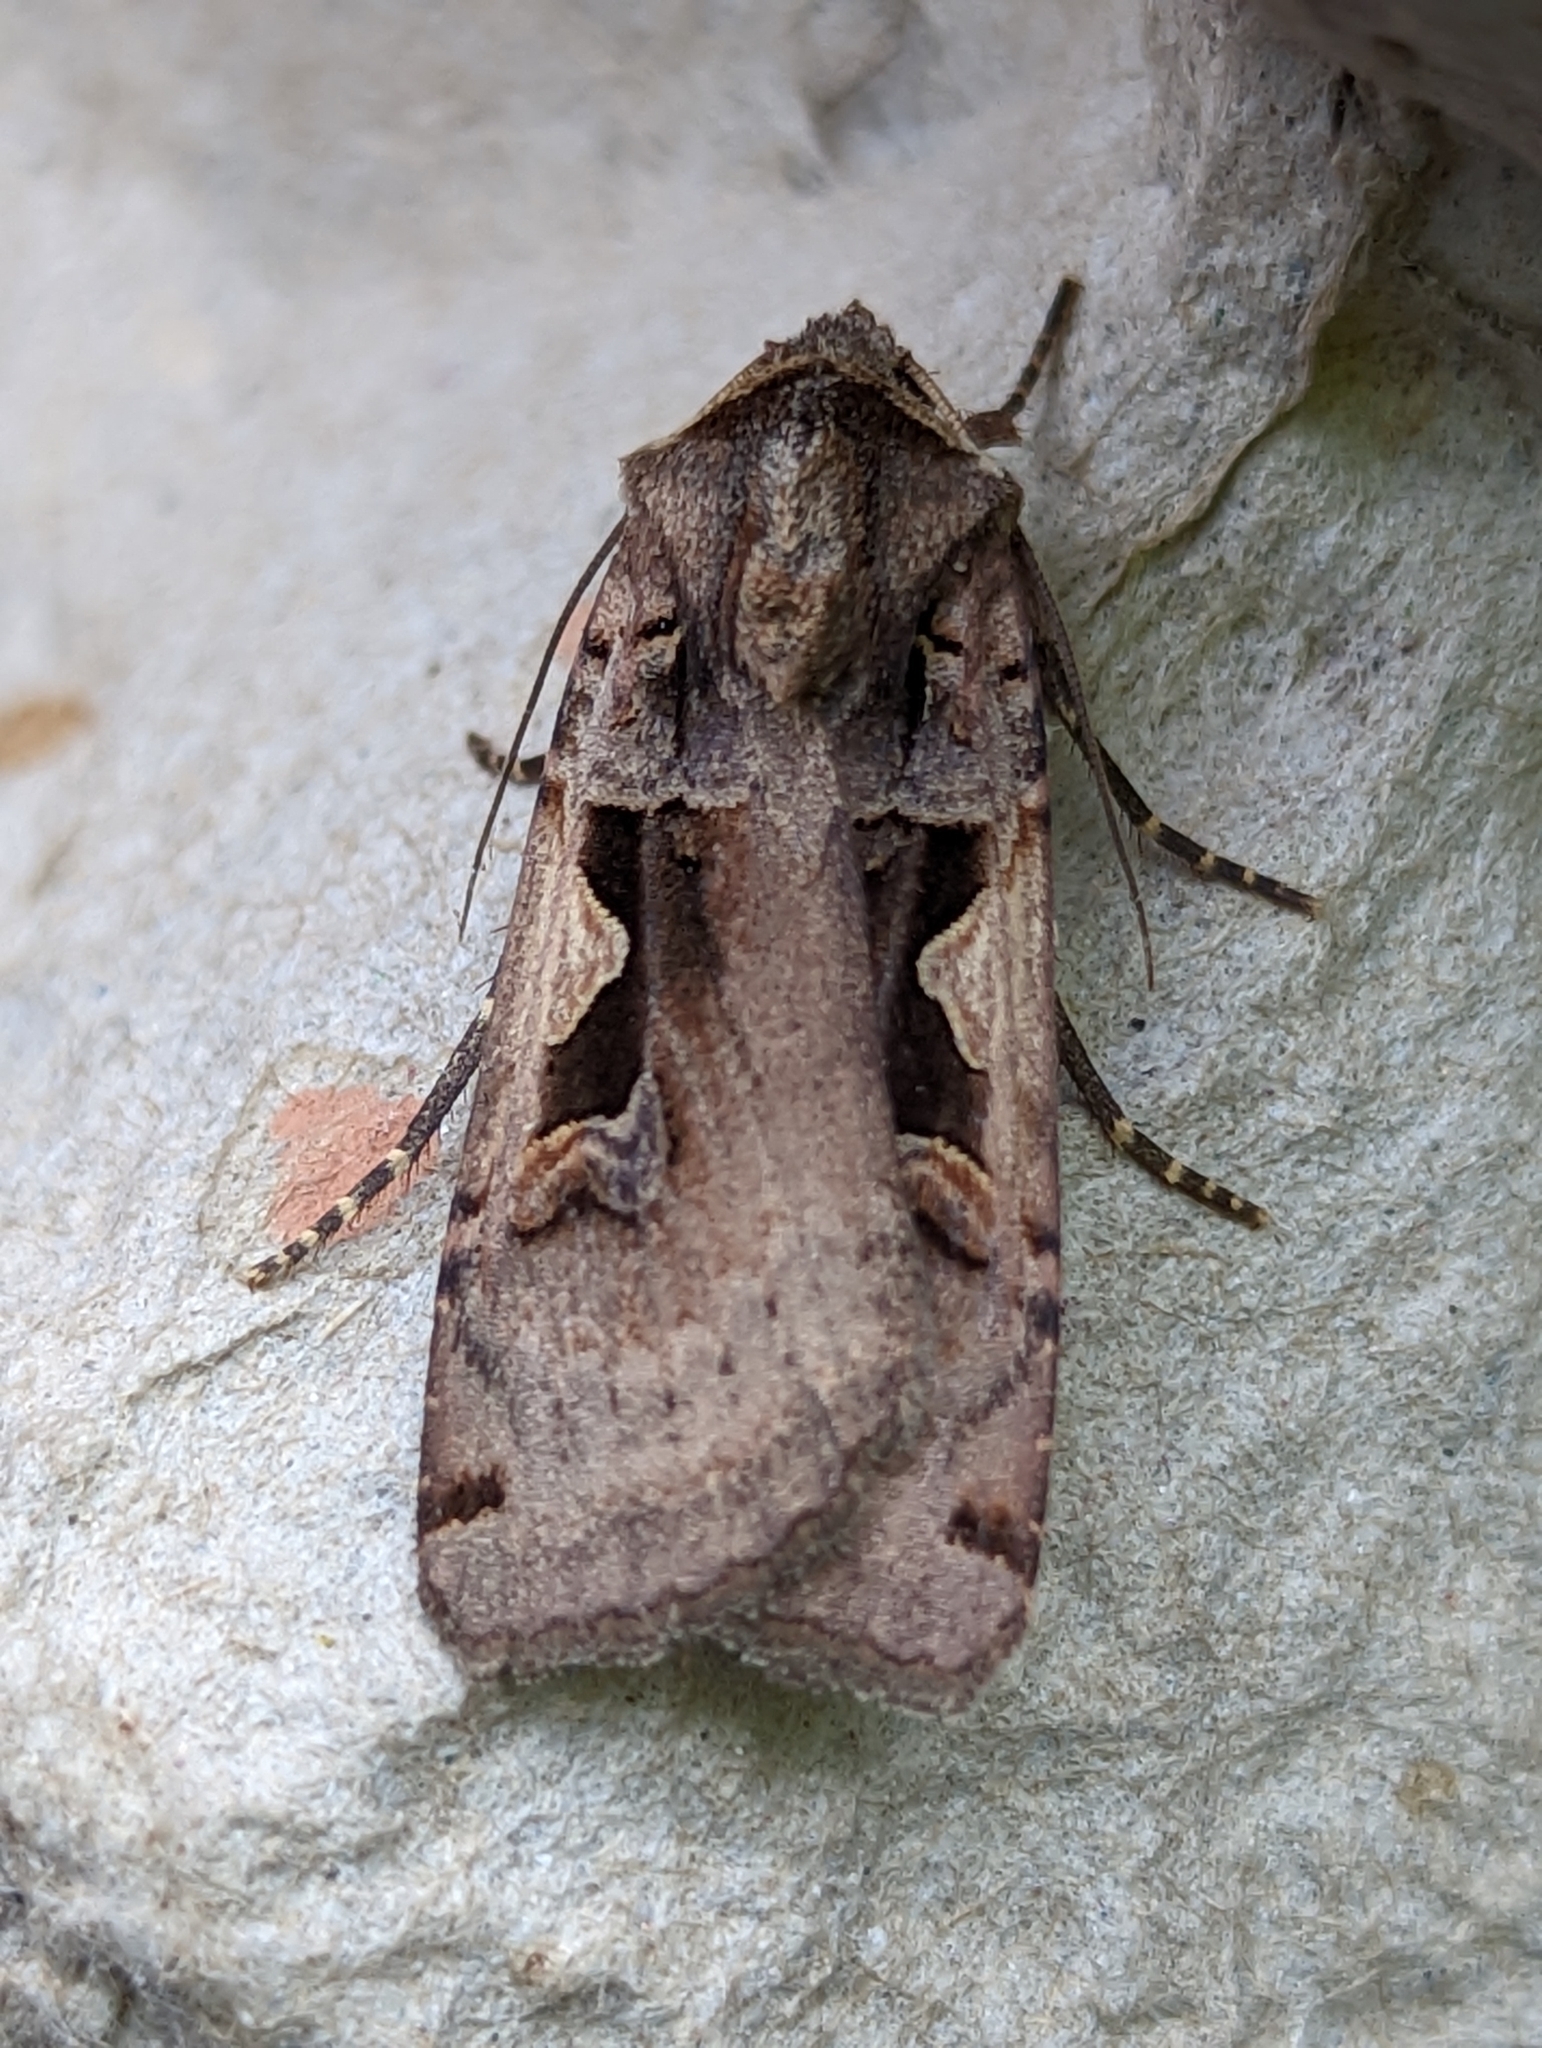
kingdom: Animalia
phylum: Arthropoda
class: Insecta
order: Lepidoptera
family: Noctuidae
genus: Xestia
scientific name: Xestia c-nigrum
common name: Setaceous hebrew character
